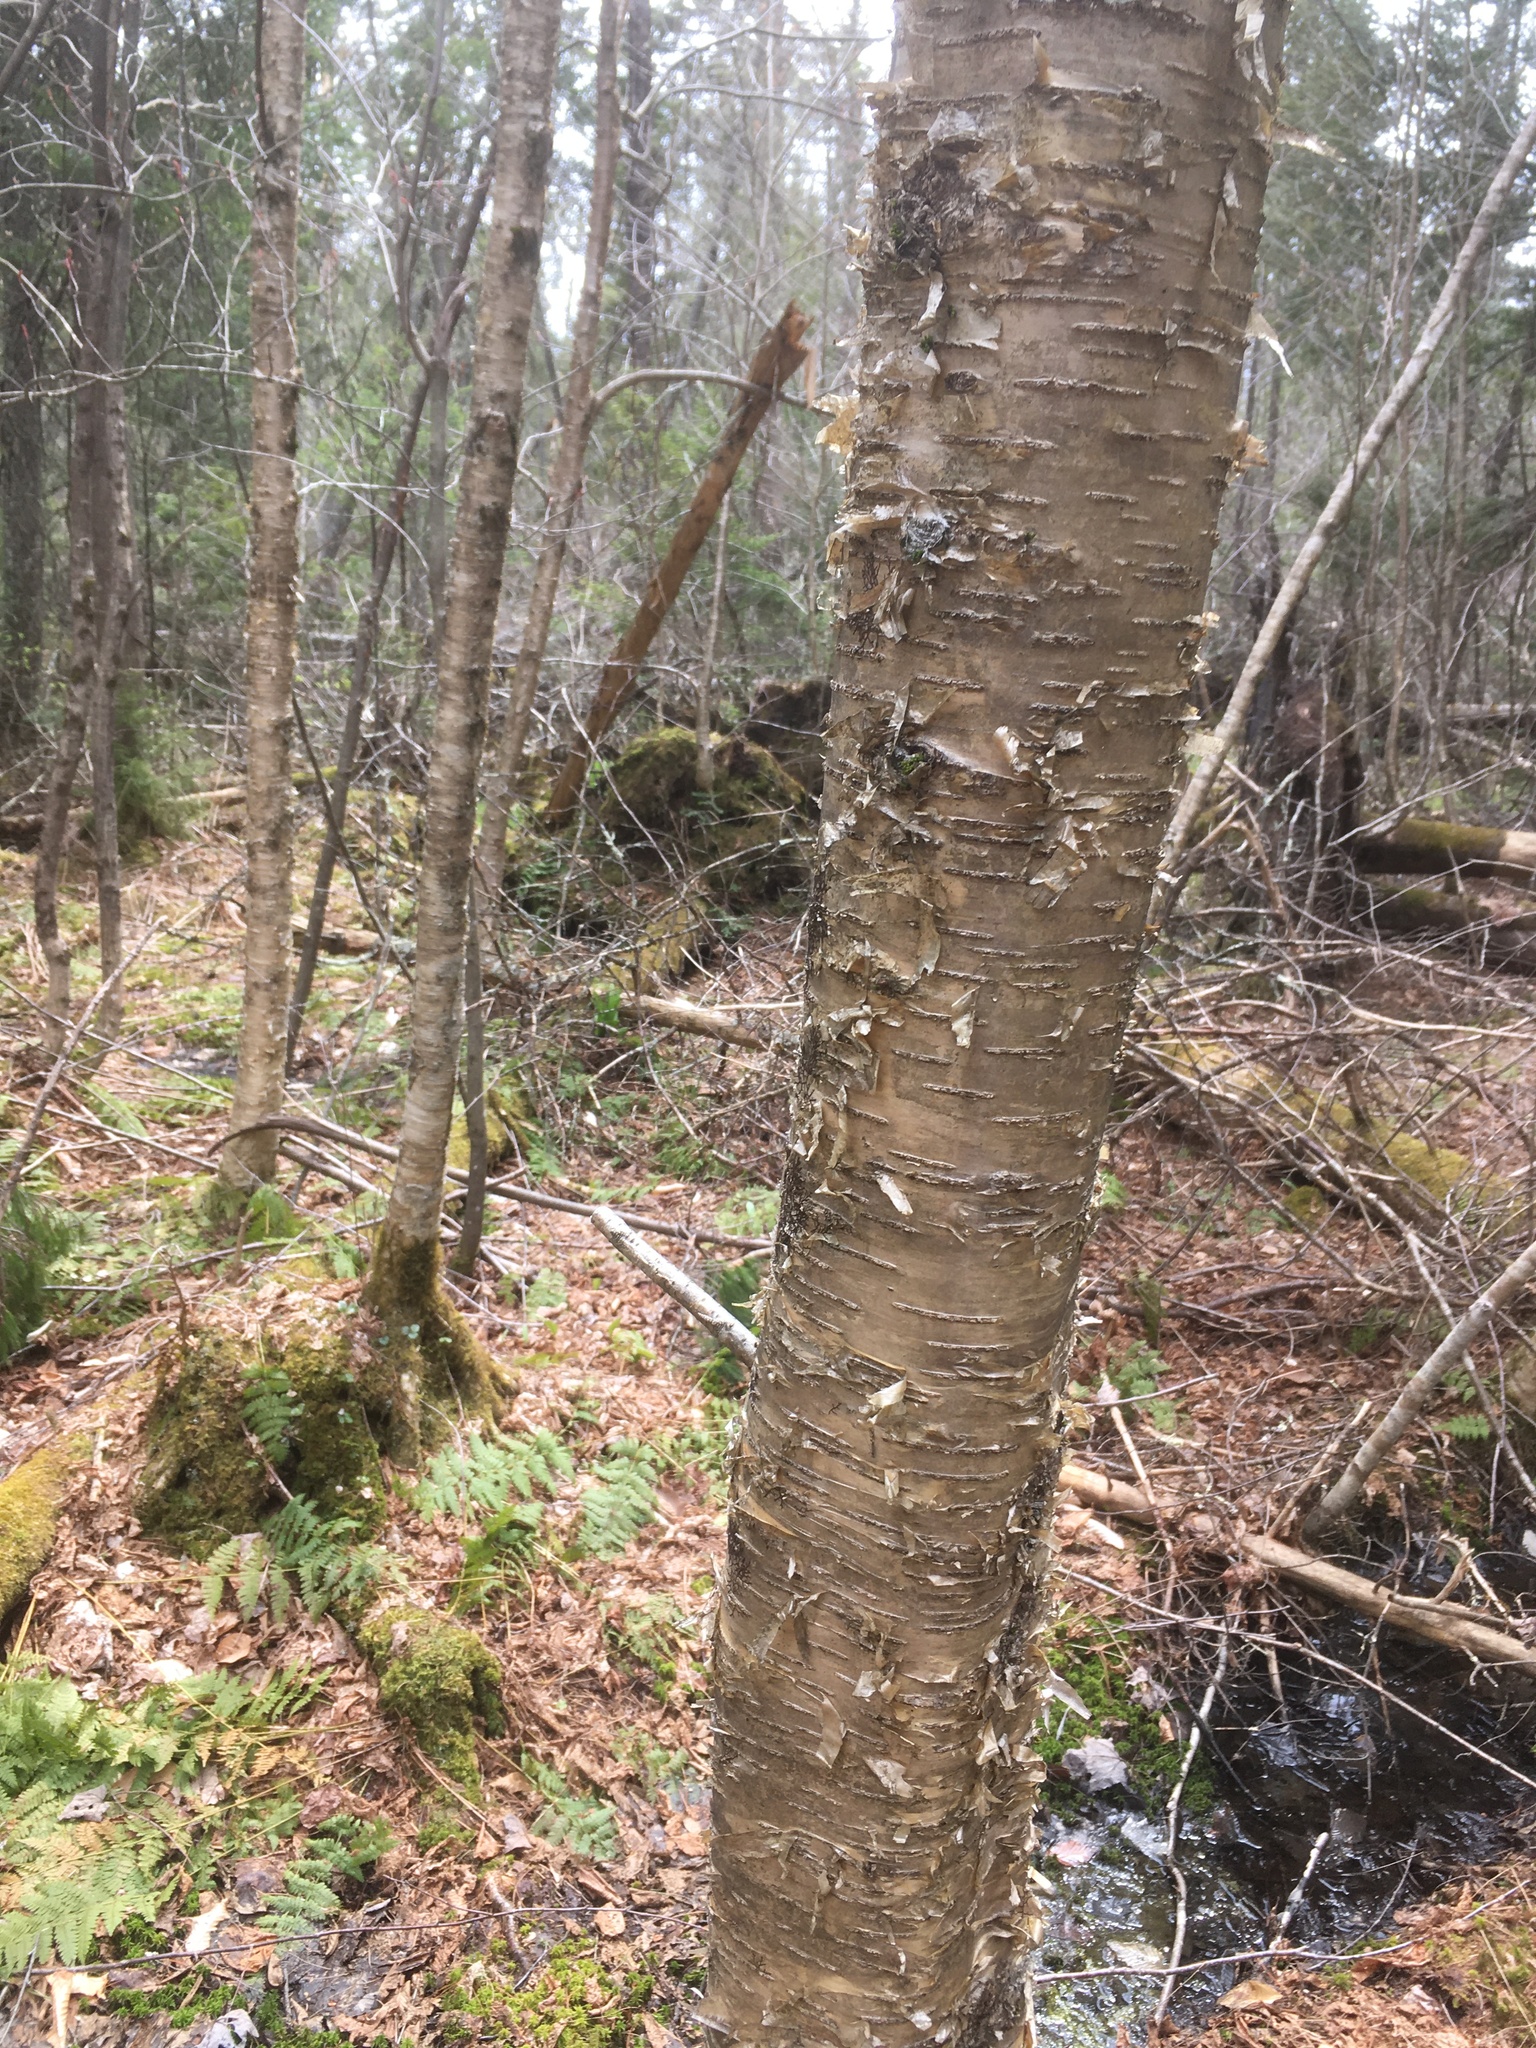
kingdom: Plantae
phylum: Tracheophyta
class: Magnoliopsida
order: Fagales
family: Betulaceae
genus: Betula
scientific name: Betula alleghaniensis
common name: Yellow birch
